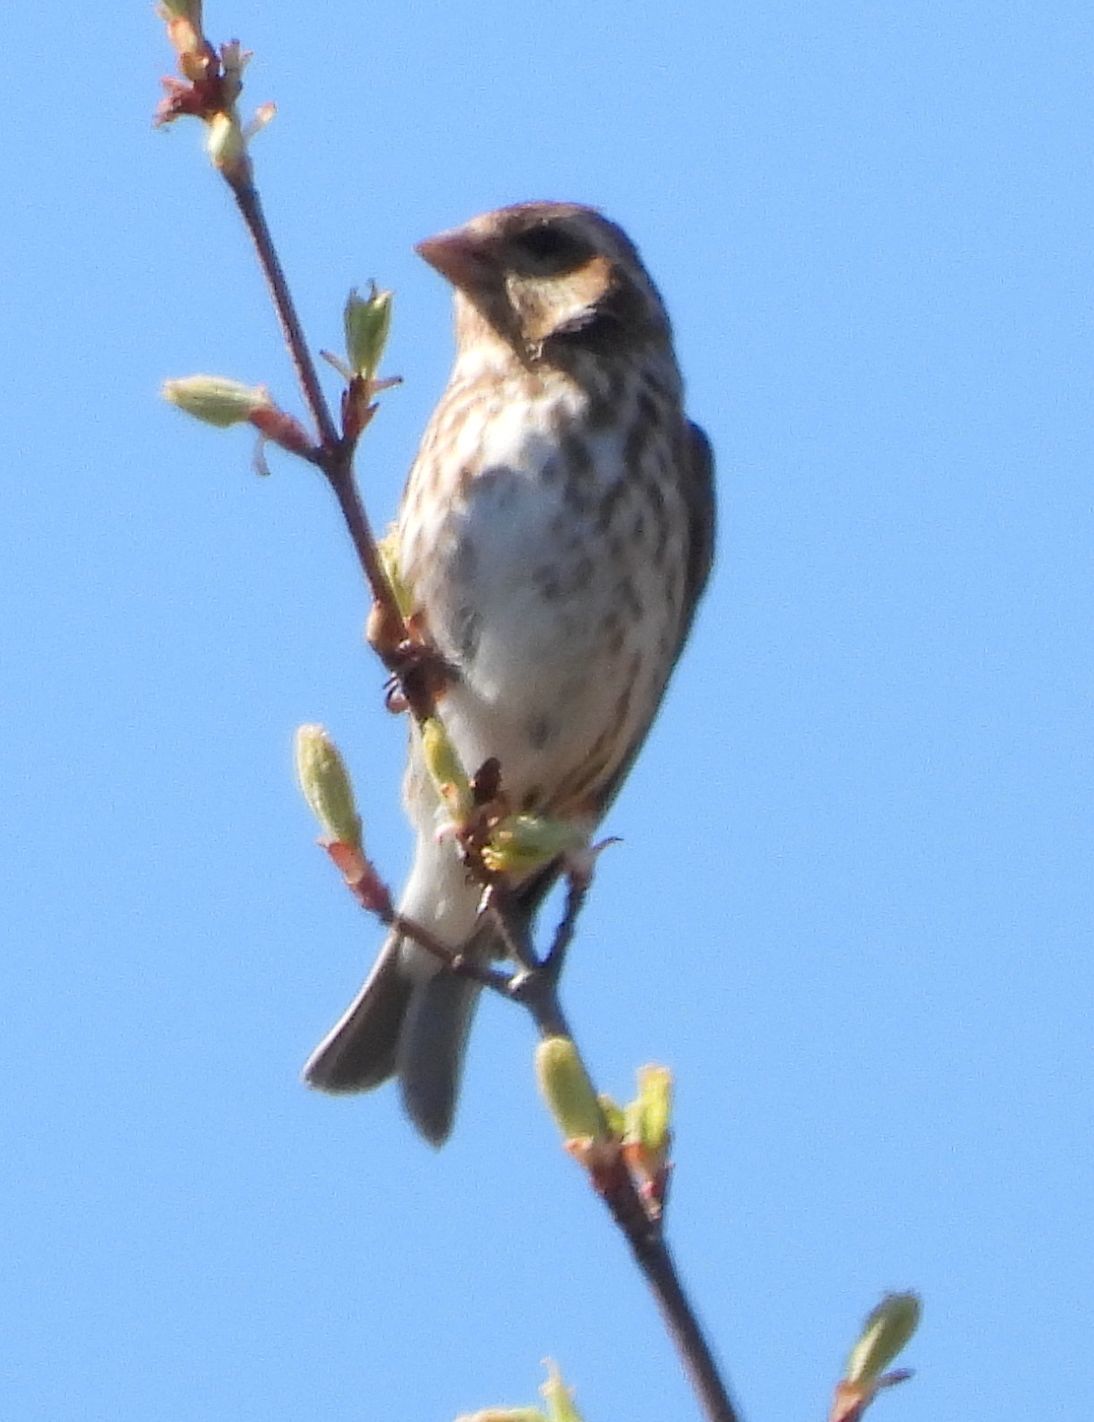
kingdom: Animalia
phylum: Chordata
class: Aves
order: Passeriformes
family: Fringillidae
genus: Haemorhous
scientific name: Haemorhous purpureus
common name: Purple finch
